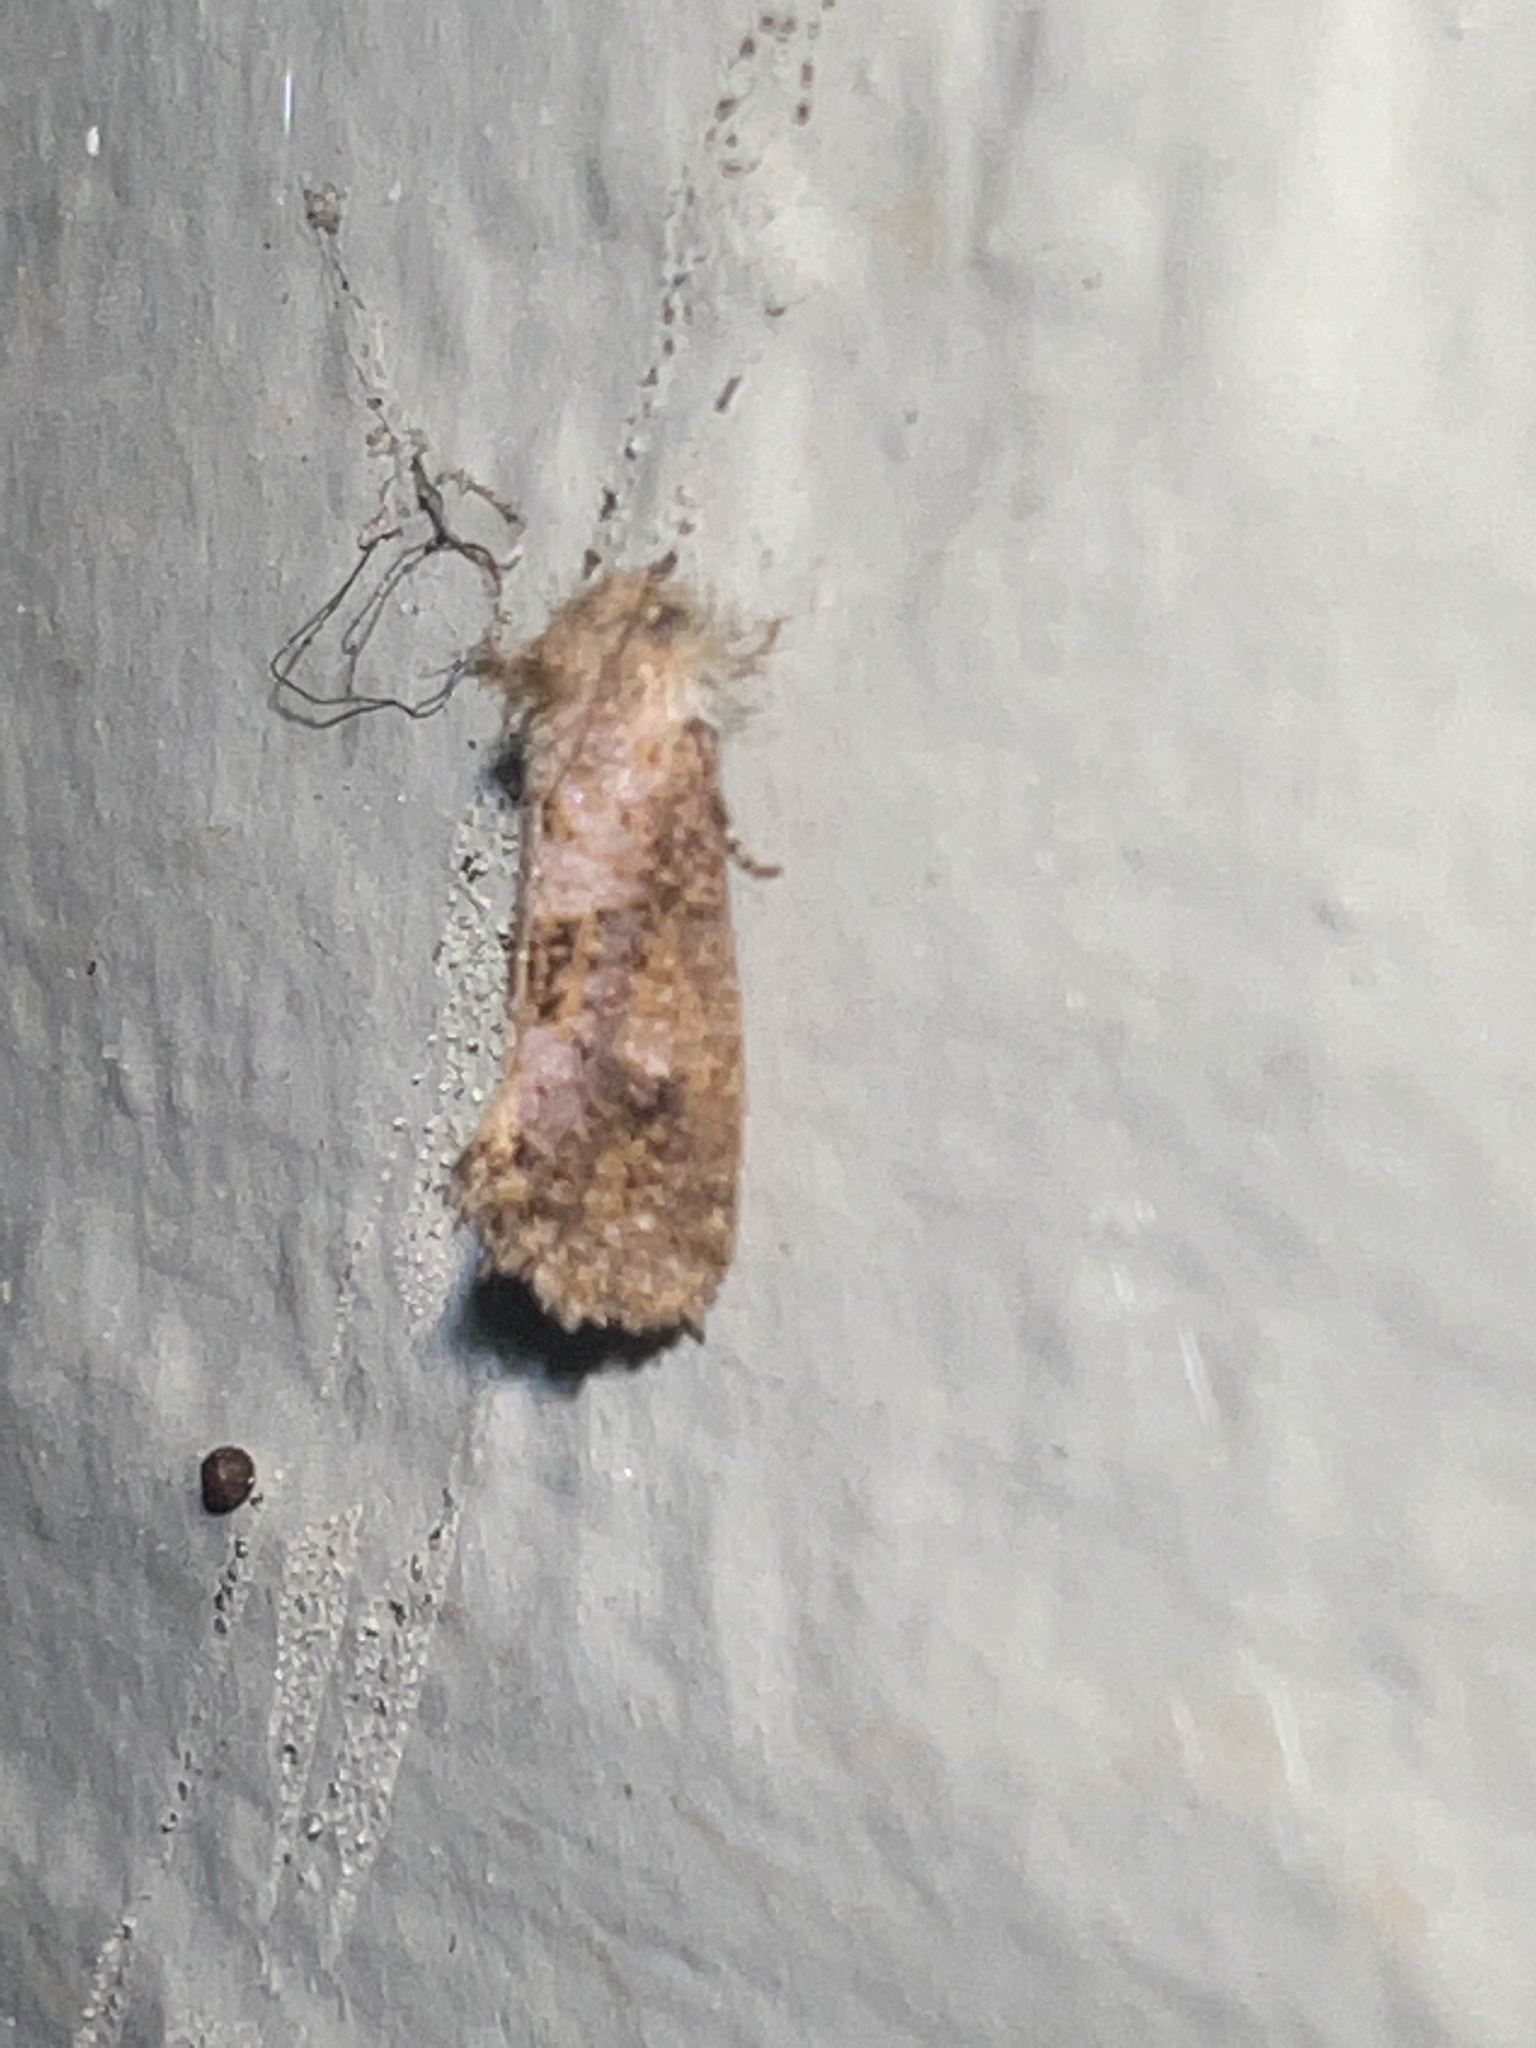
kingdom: Animalia
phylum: Arthropoda
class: Insecta
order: Lepidoptera
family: Tineidae
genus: Acrolophus
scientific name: Acrolophus panamae
